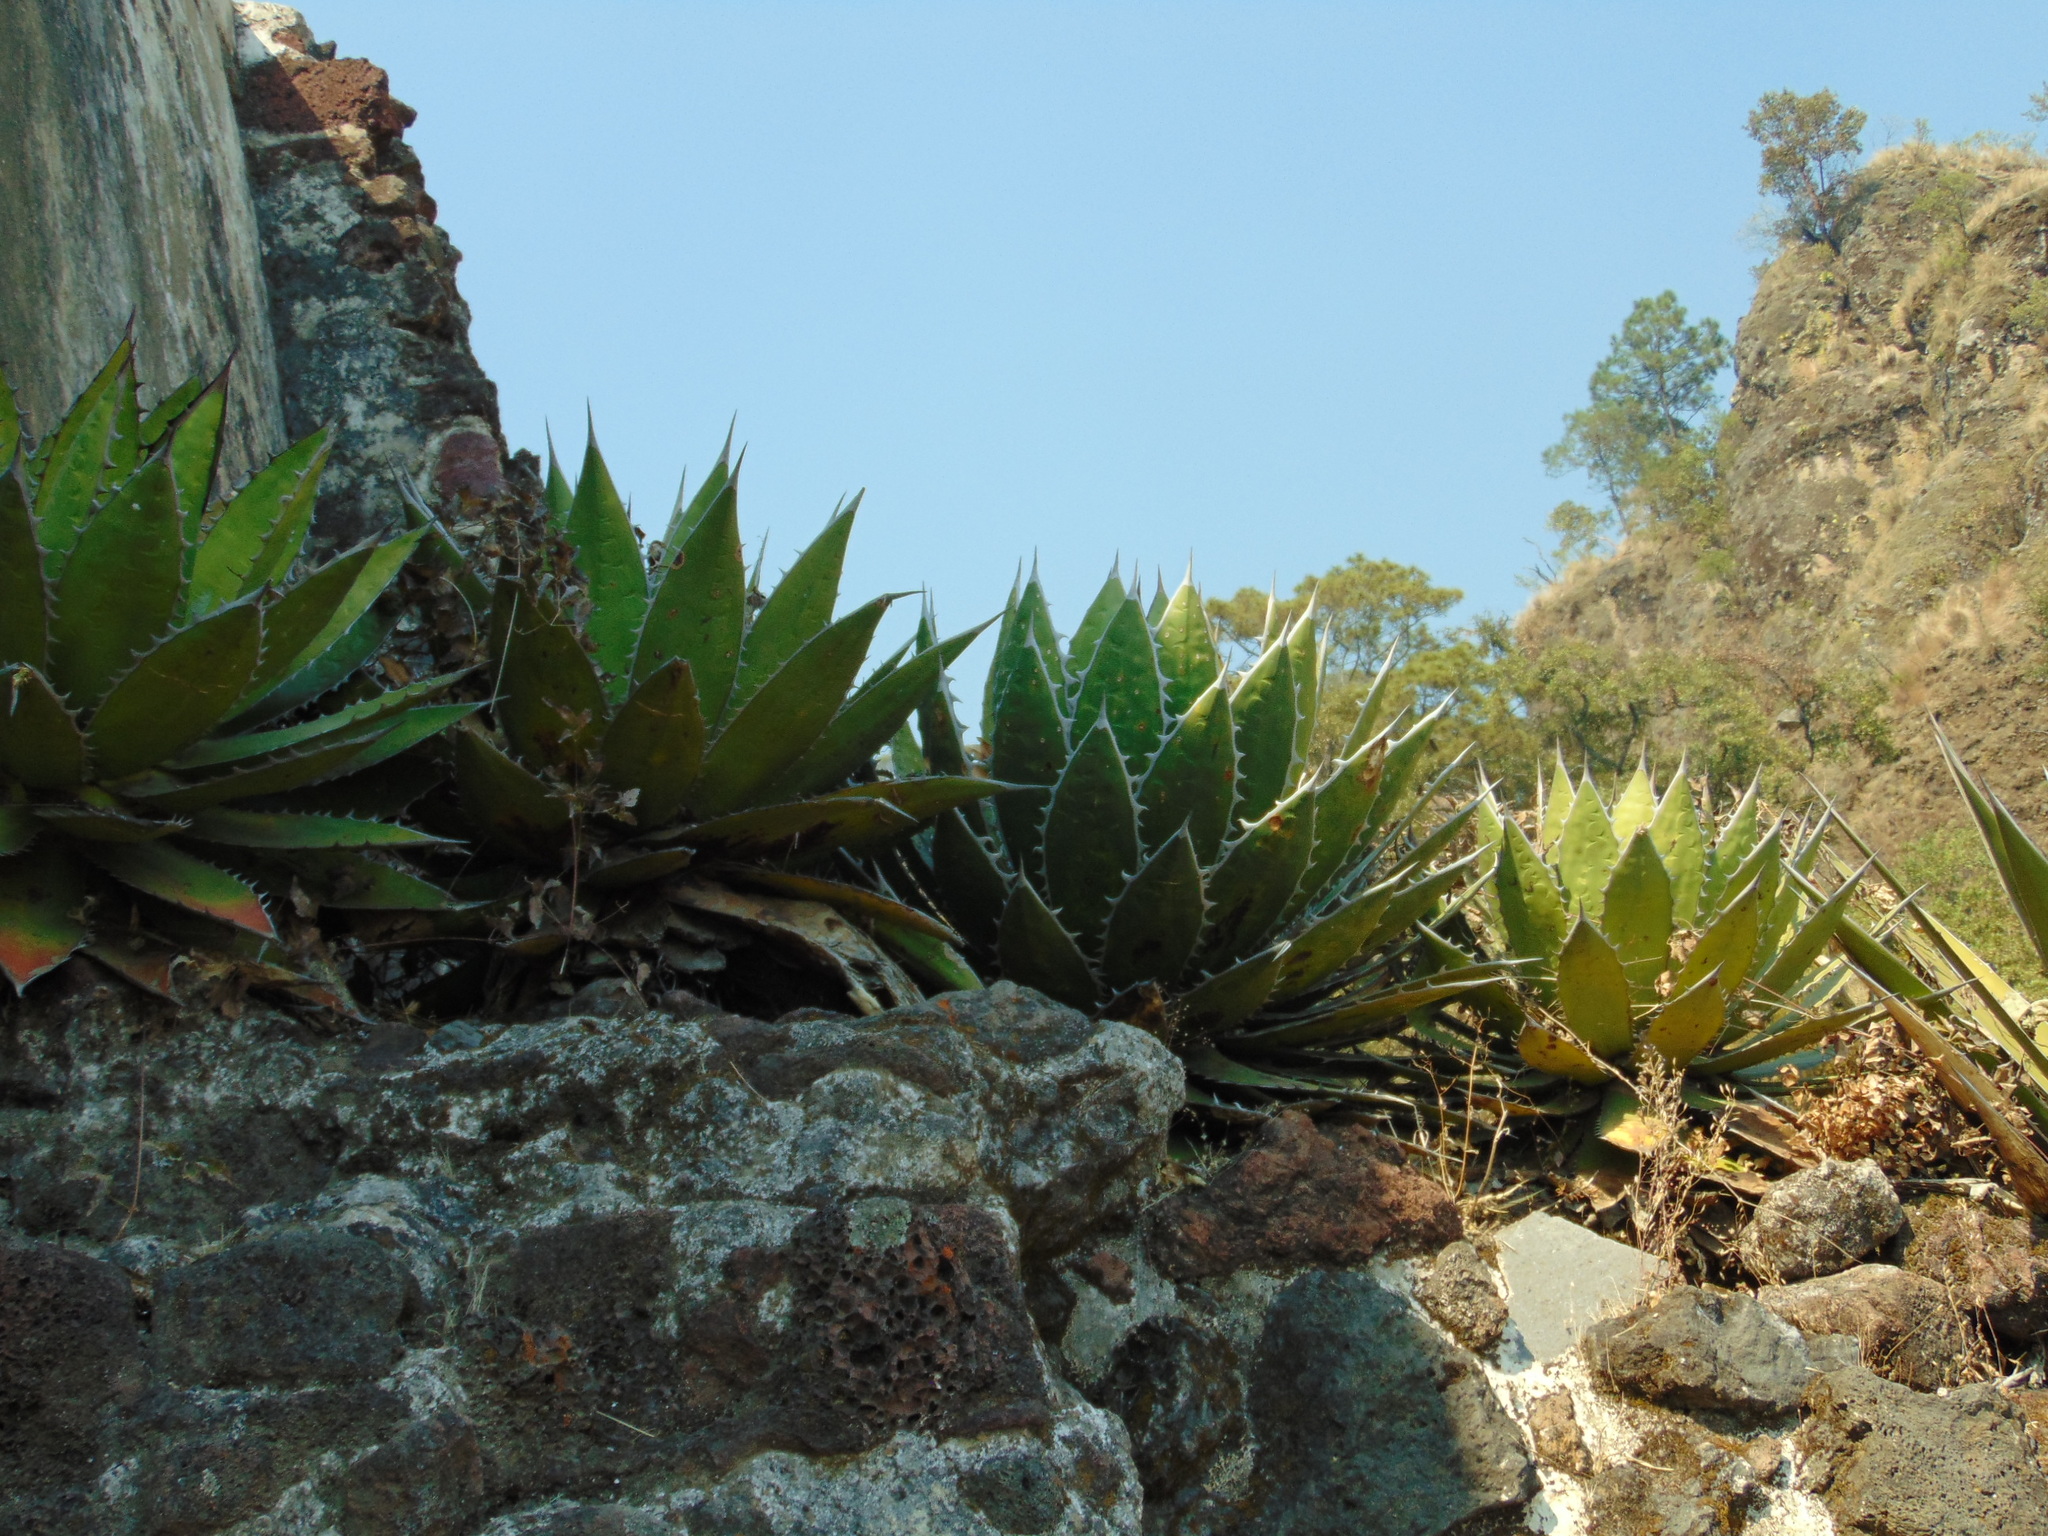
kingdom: Plantae
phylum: Tracheophyta
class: Liliopsida
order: Asparagales
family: Asparagaceae
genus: Agave
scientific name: Agave horrida
